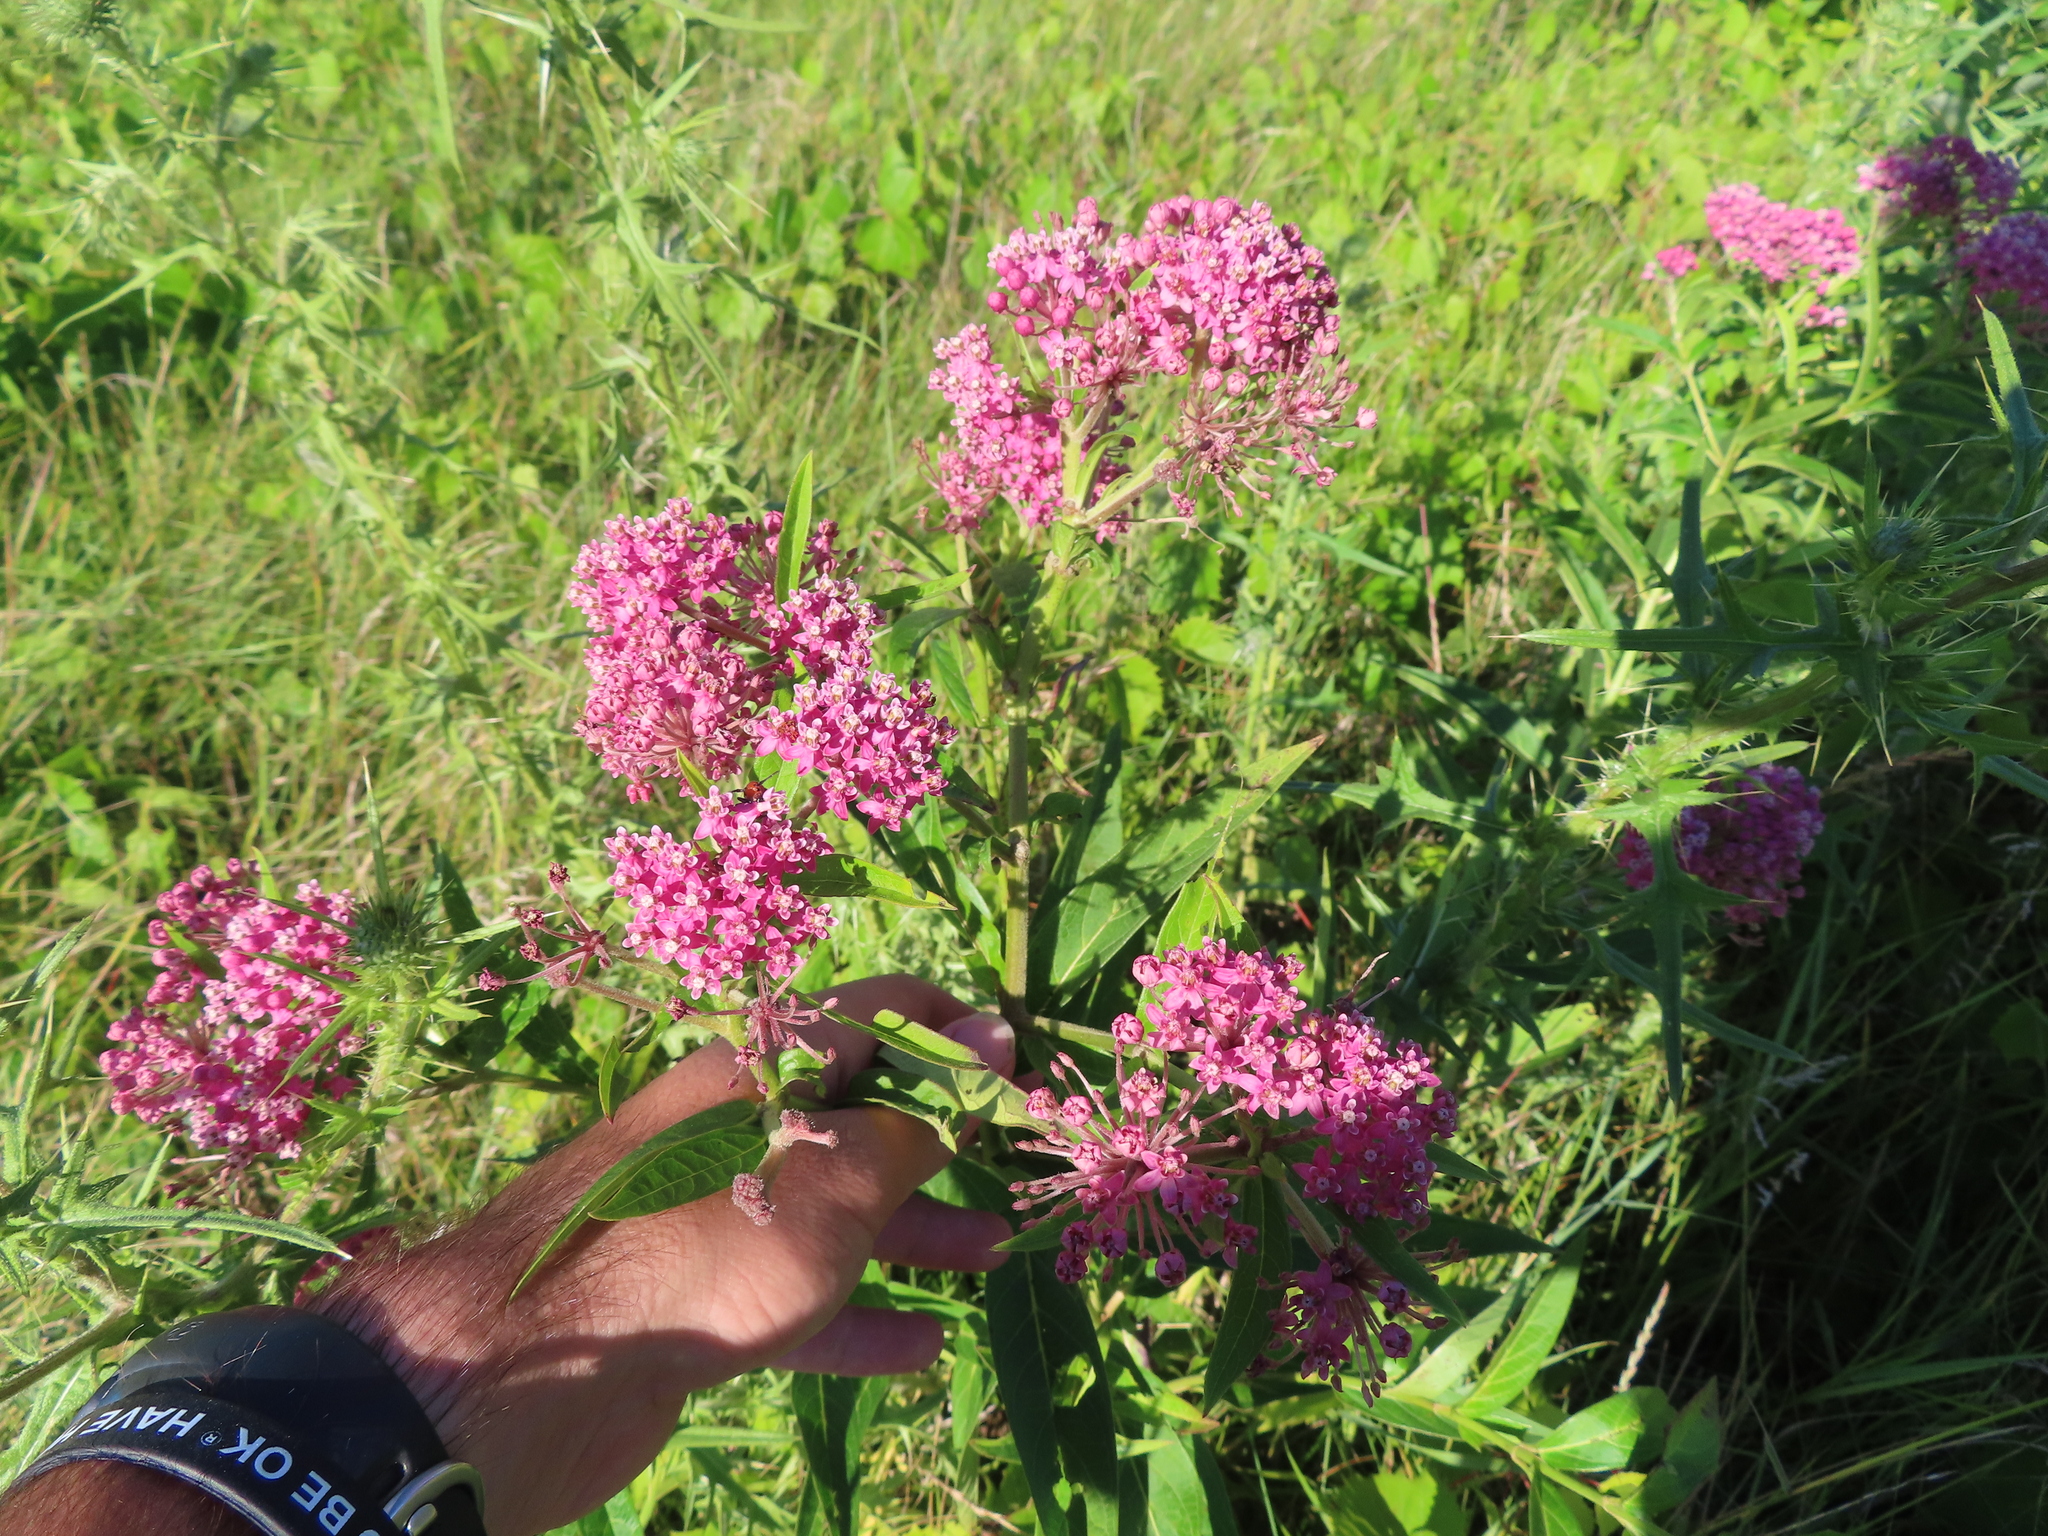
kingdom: Plantae
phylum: Tracheophyta
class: Magnoliopsida
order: Gentianales
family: Apocynaceae
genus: Asclepias
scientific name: Asclepias incarnata
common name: Swamp milkweed
